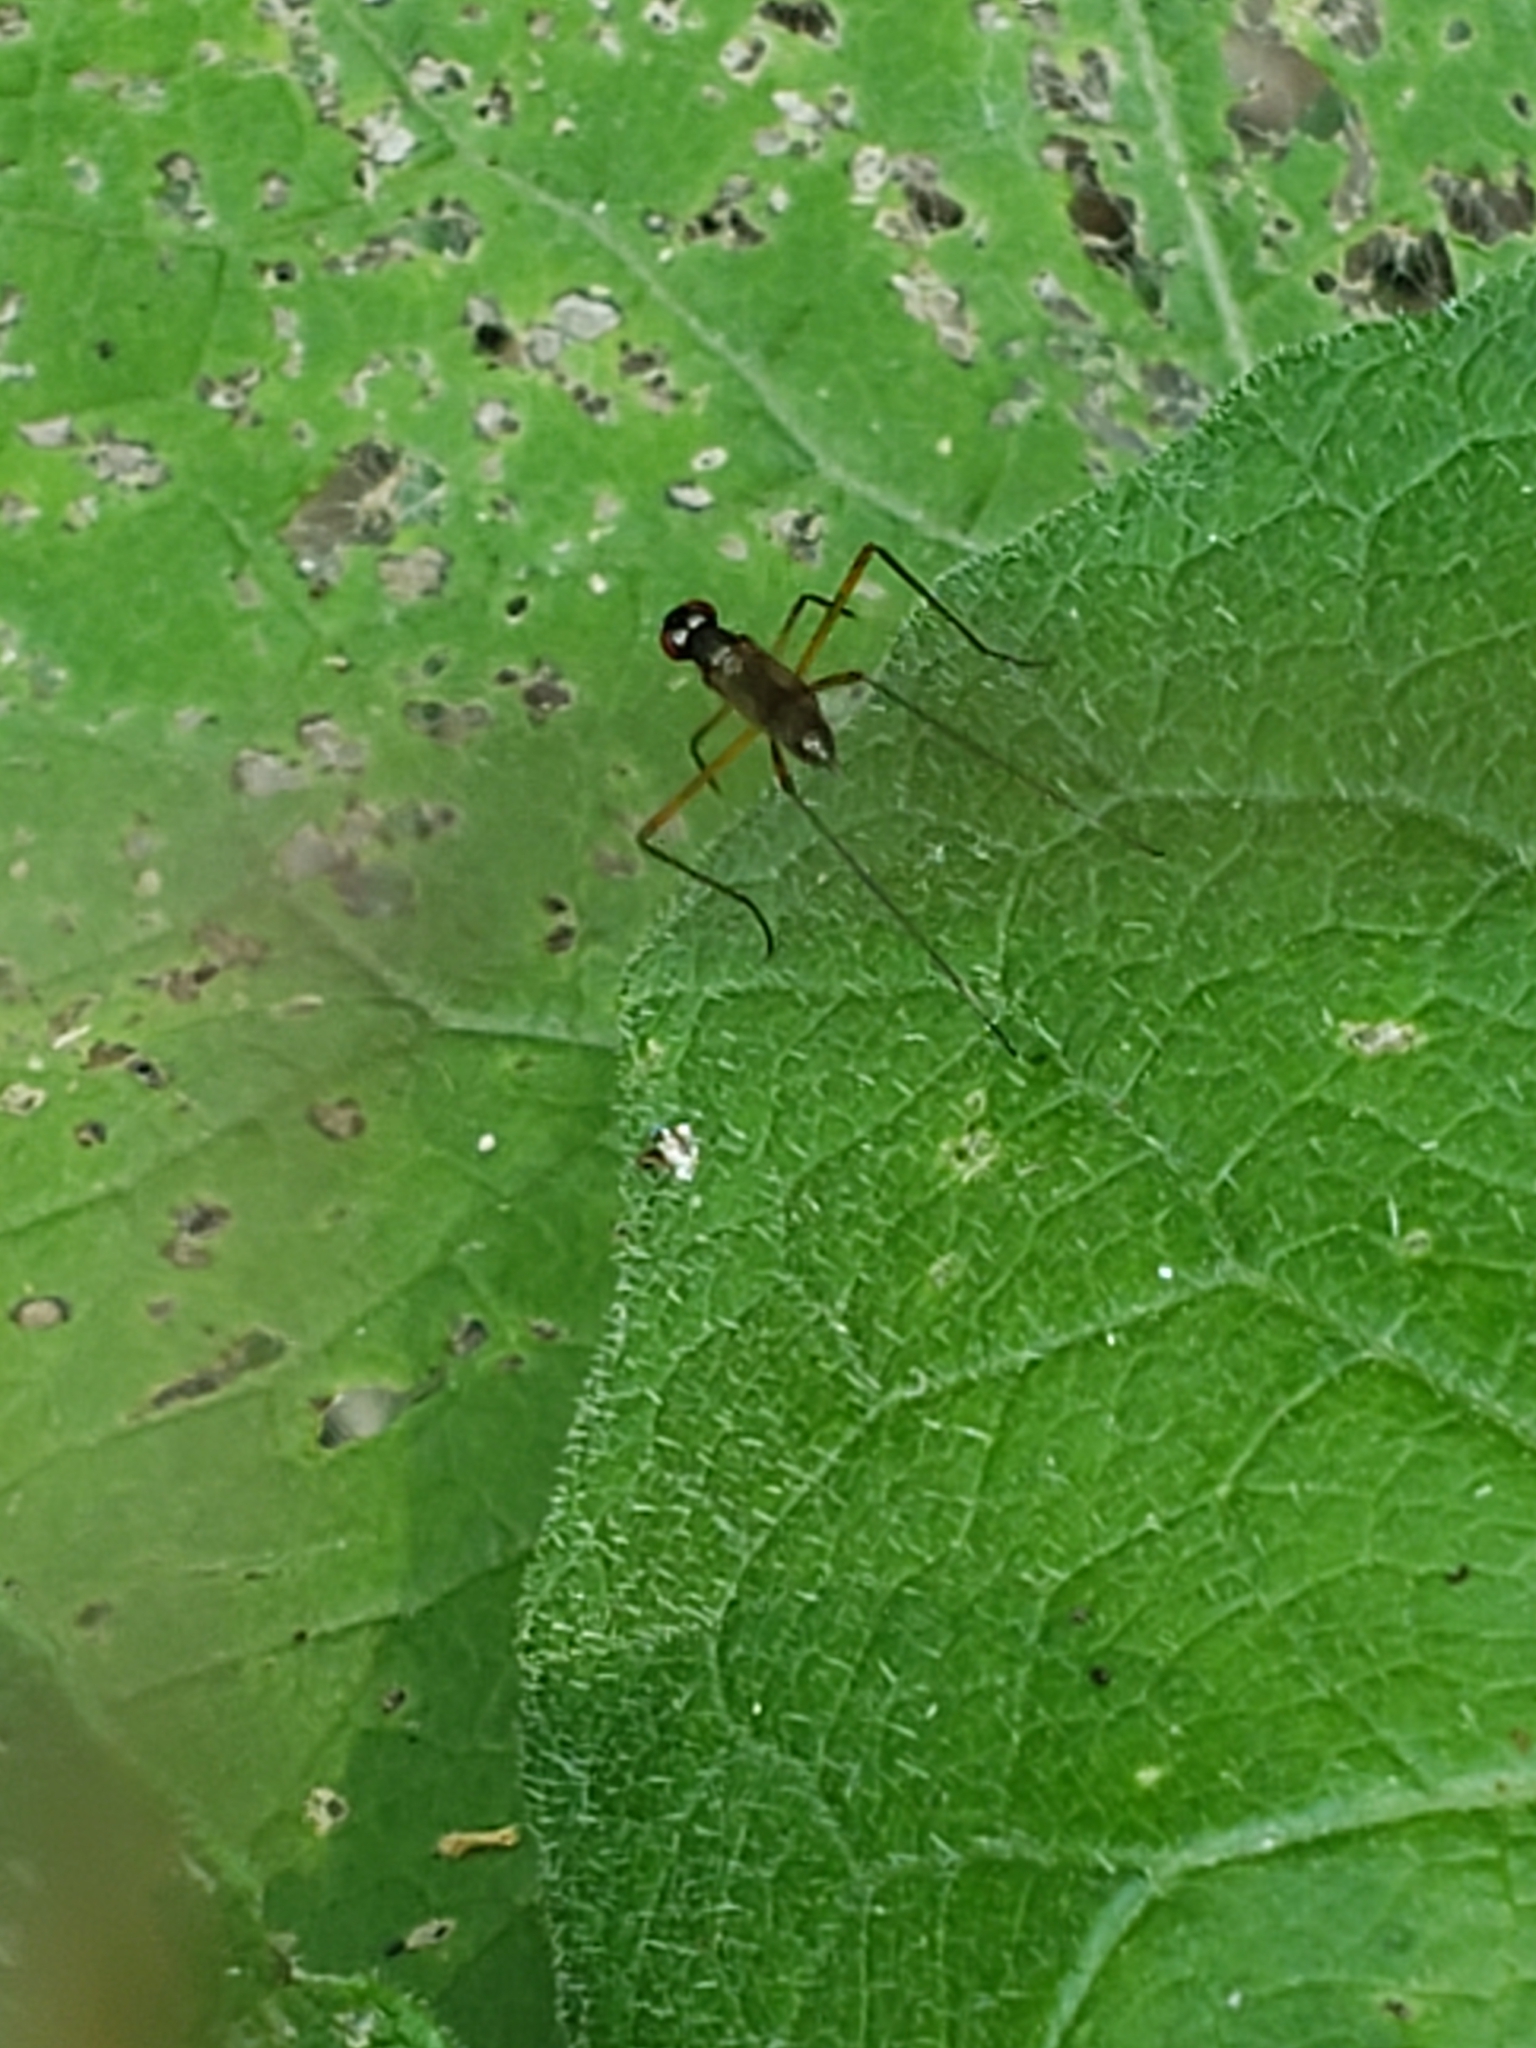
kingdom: Animalia
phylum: Arthropoda
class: Insecta
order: Diptera
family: Micropezidae
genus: Rainieria
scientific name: Rainieria antennaepes
